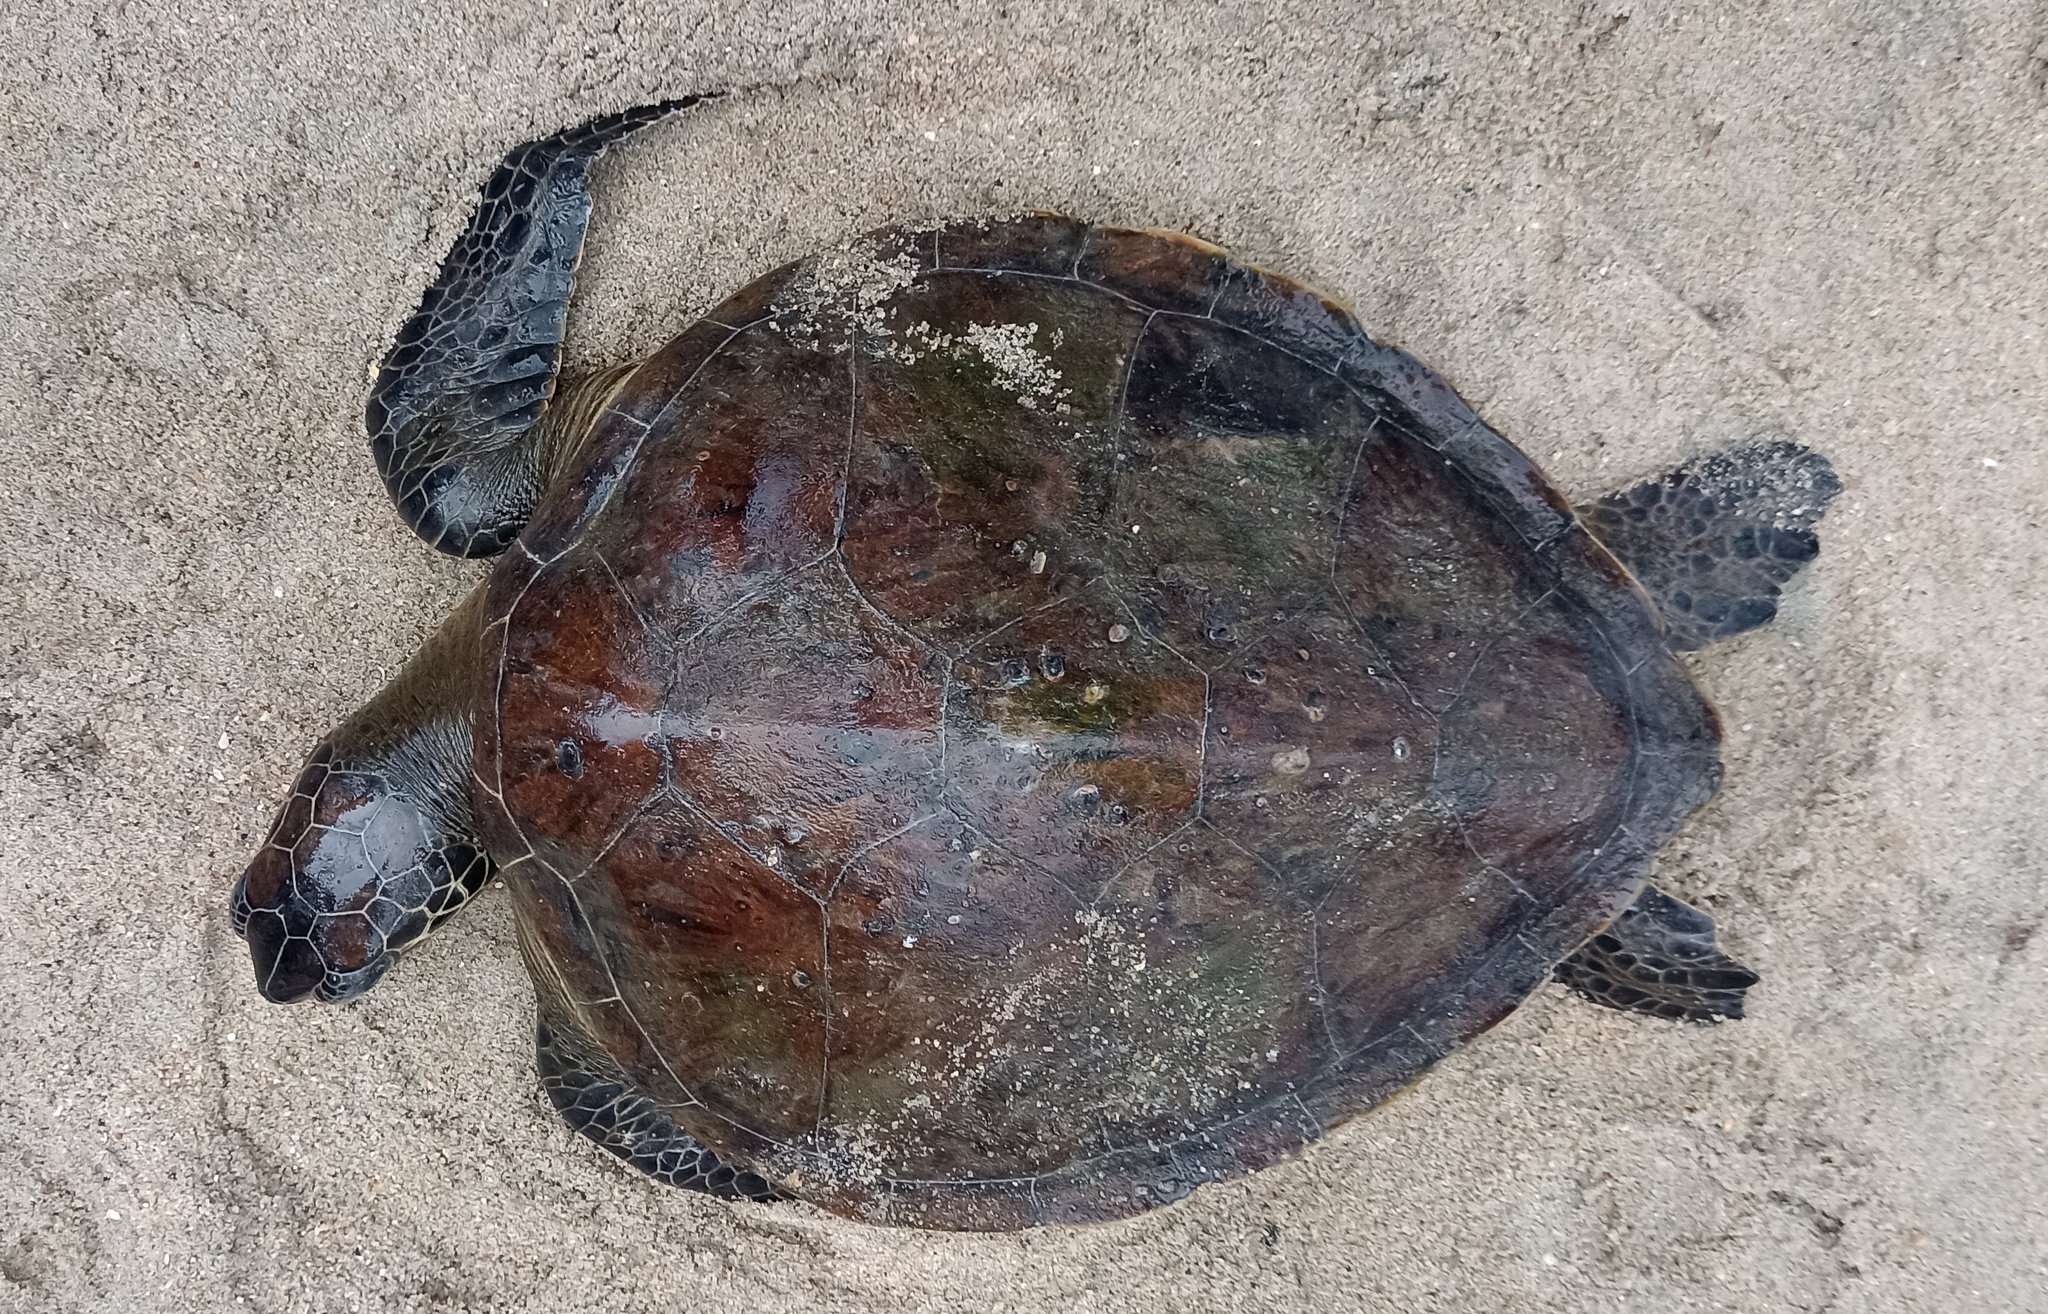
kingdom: Animalia
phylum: Chordata
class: Testudines
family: Cheloniidae
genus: Chelonia
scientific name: Chelonia mydas
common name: Green turtle
